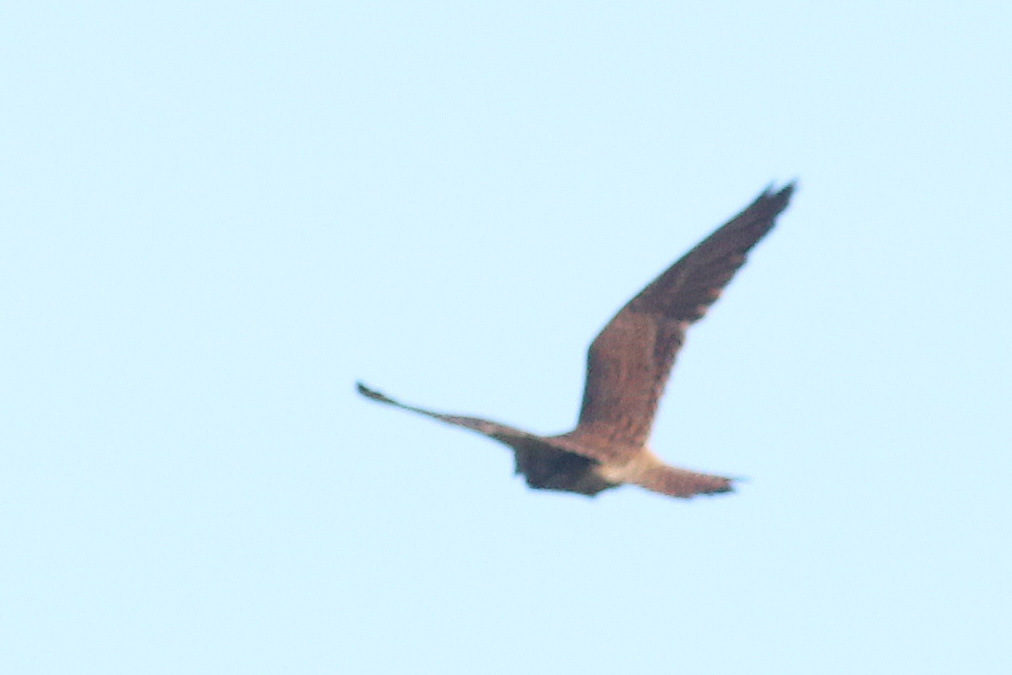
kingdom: Animalia
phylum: Chordata
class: Aves
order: Falconiformes
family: Falconidae
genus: Falco
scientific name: Falco tinnunculus
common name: Common kestrel
